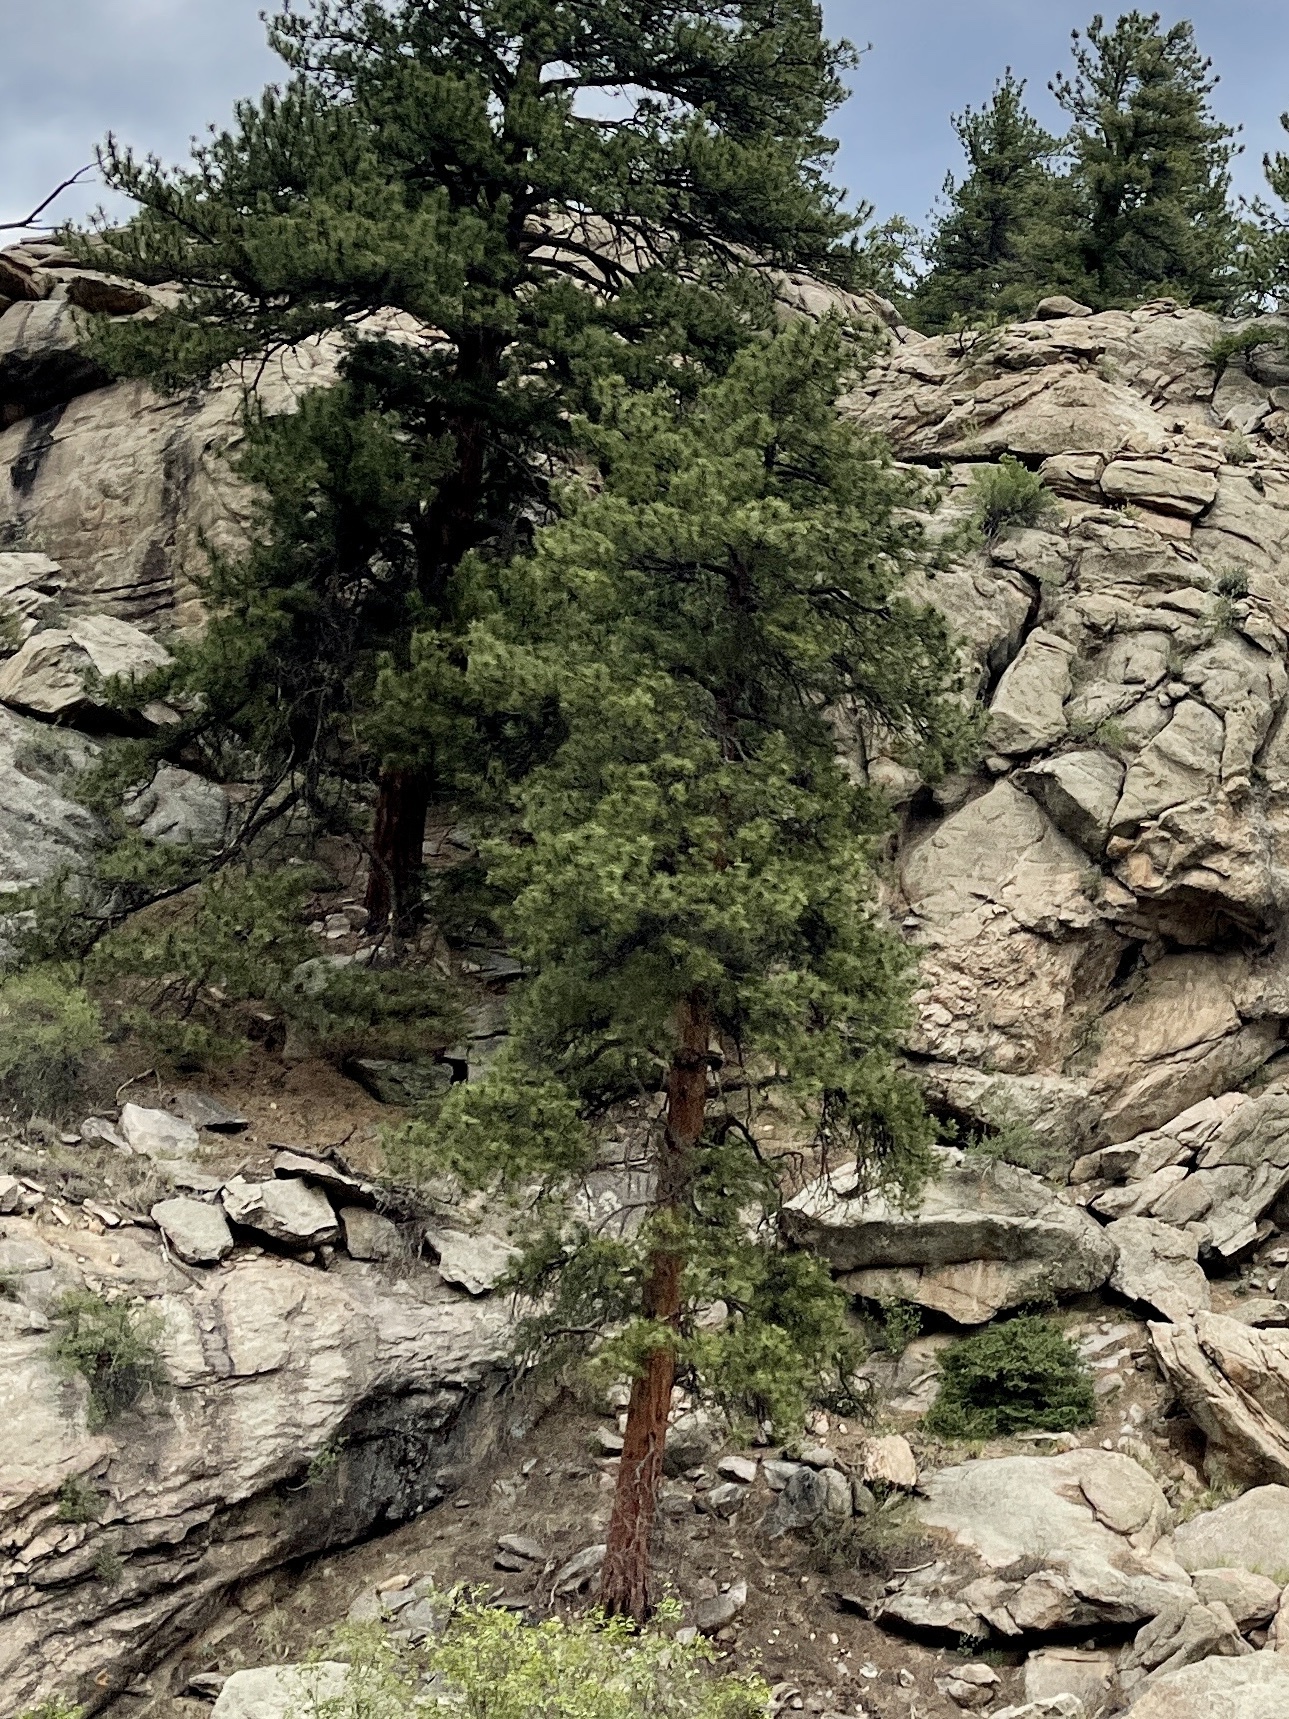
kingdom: Plantae
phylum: Tracheophyta
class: Pinopsida
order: Pinales
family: Pinaceae
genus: Pinus
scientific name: Pinus ponderosa
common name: Western yellow-pine
